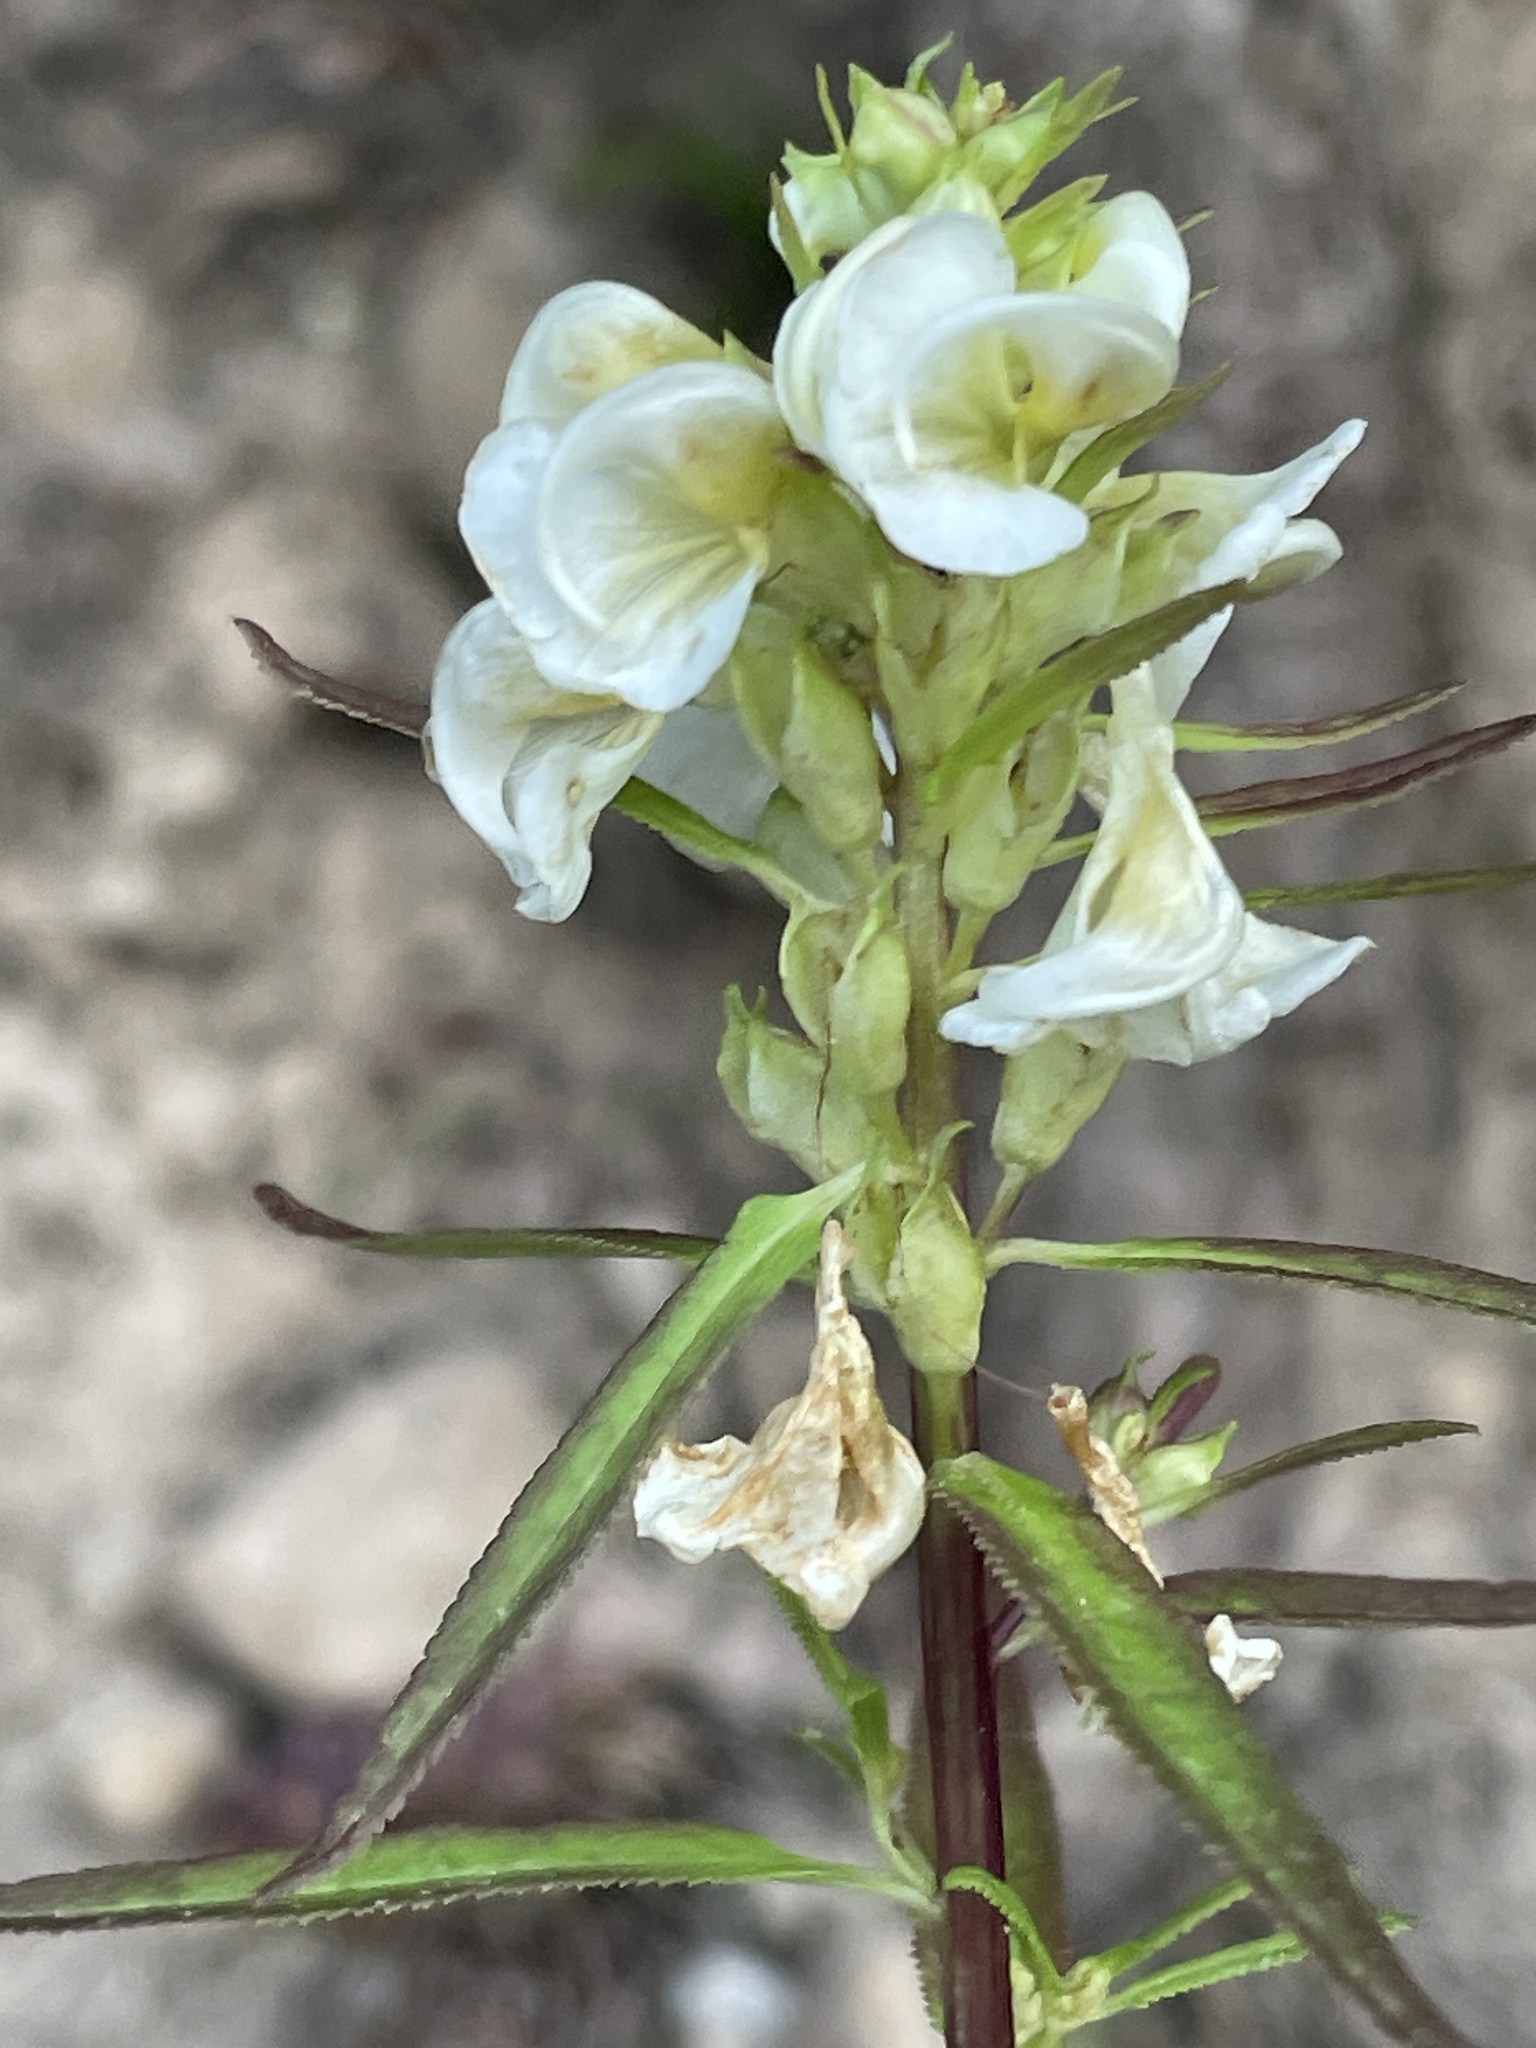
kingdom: Plantae
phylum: Tracheophyta
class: Magnoliopsida
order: Lamiales
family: Orobanchaceae
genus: Pedicularis
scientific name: Pedicularis racemosa
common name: Leafy lousewort
